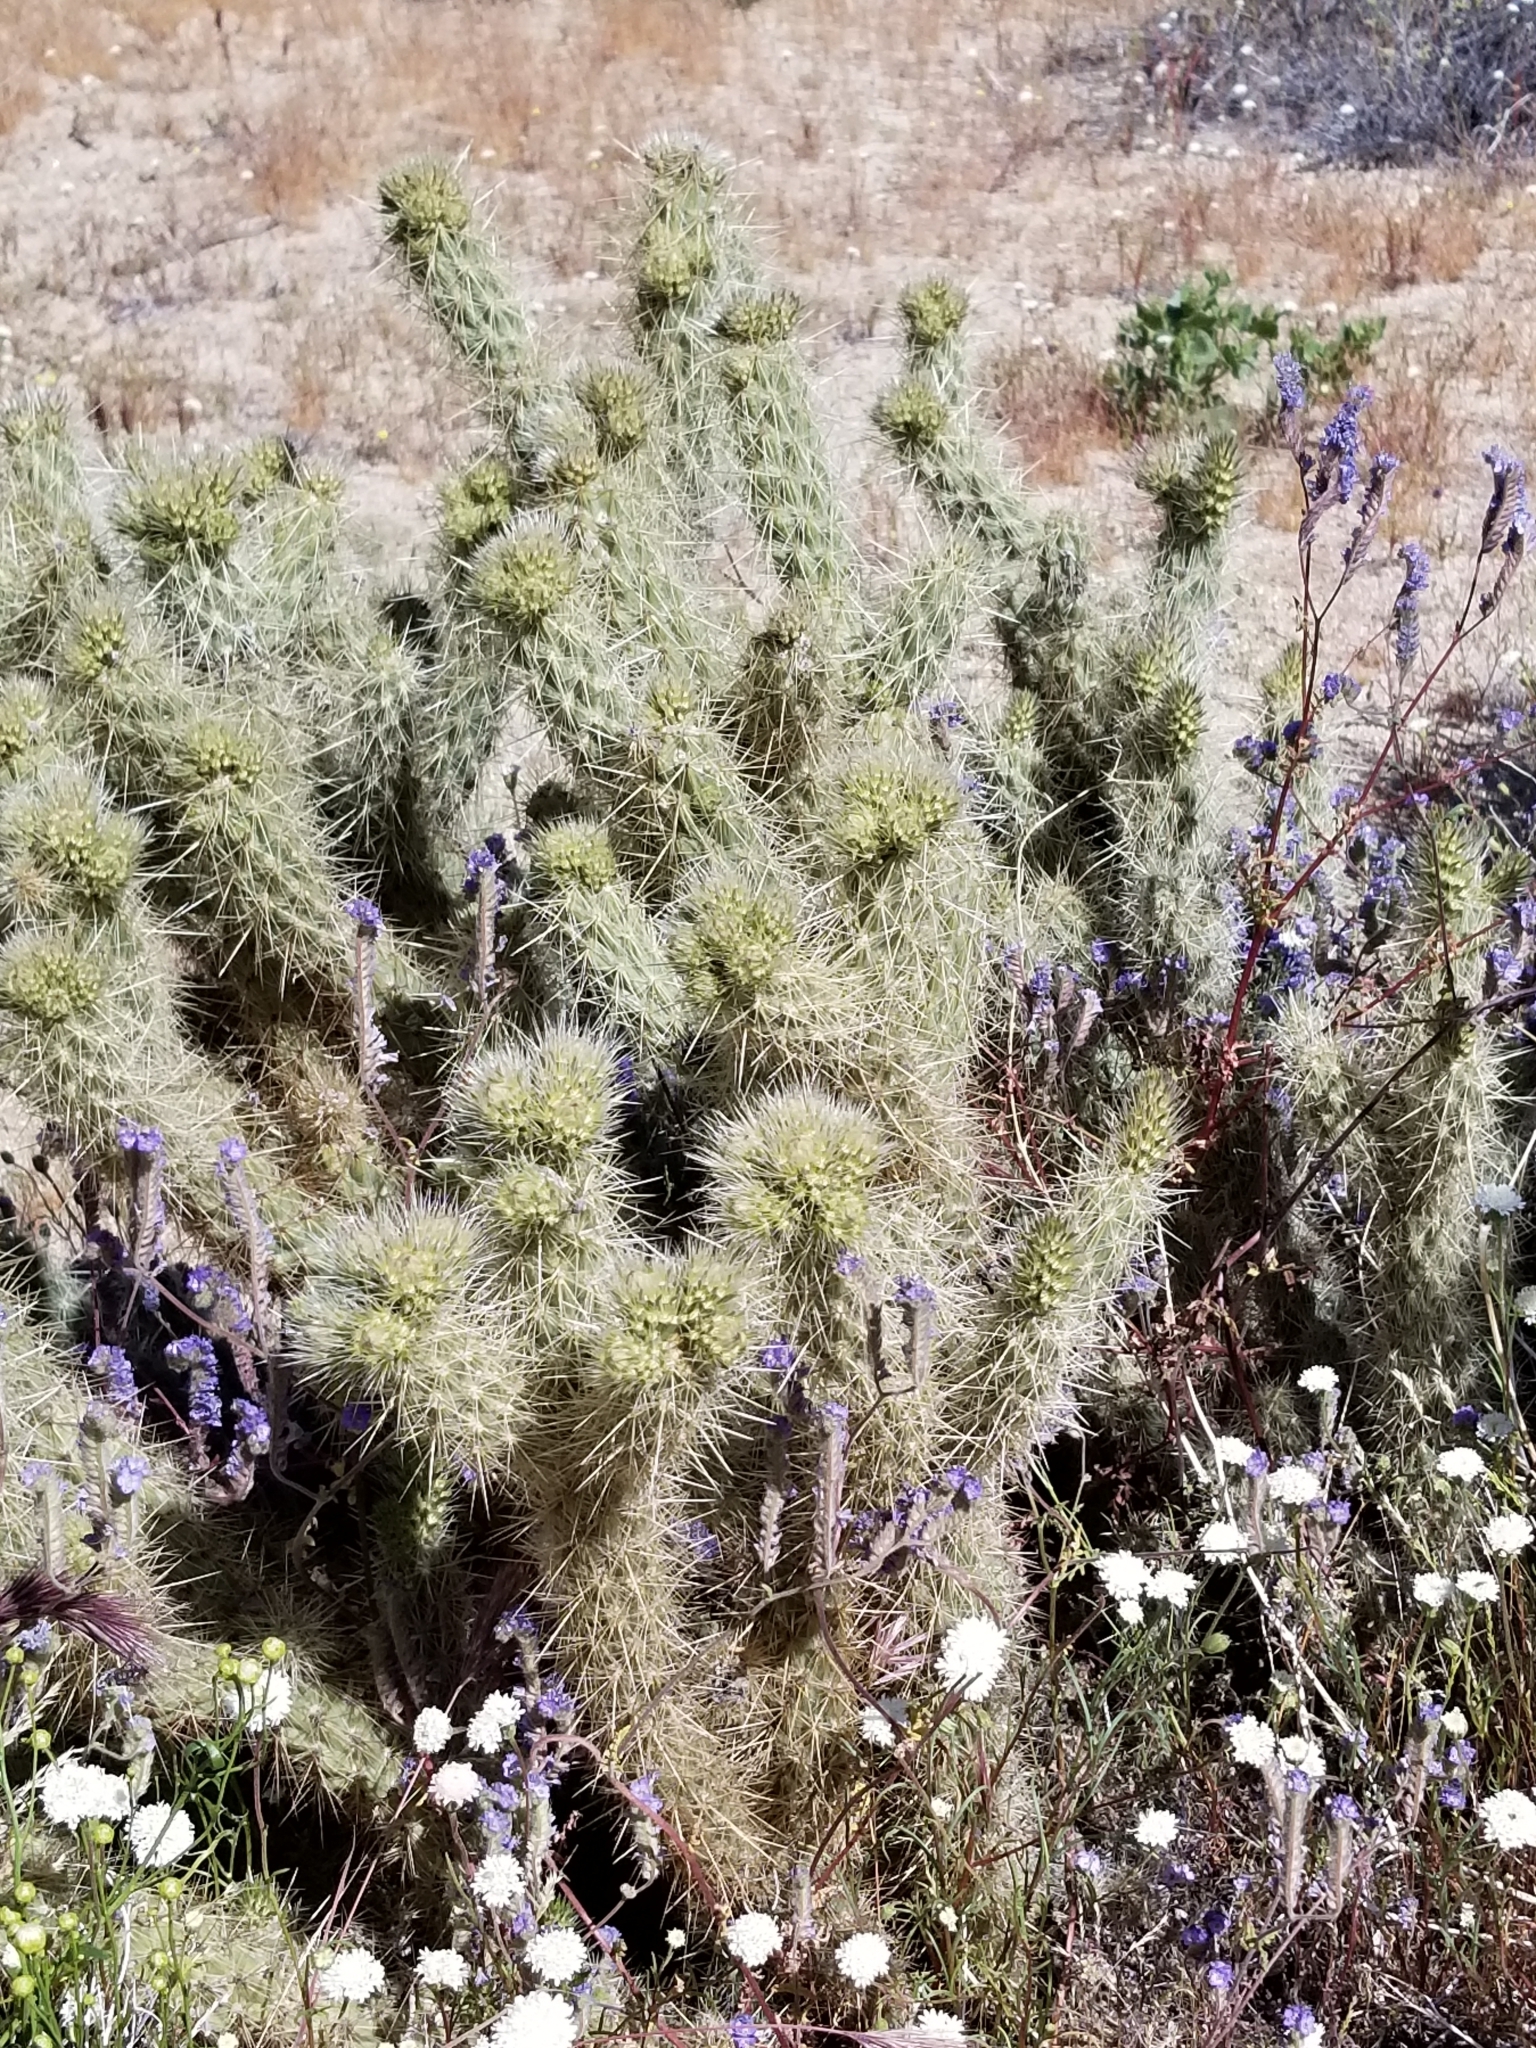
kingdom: Plantae
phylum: Tracheophyta
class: Magnoliopsida
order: Caryophyllales
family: Cactaceae
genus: Cylindropuntia
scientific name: Cylindropuntia ganderi
